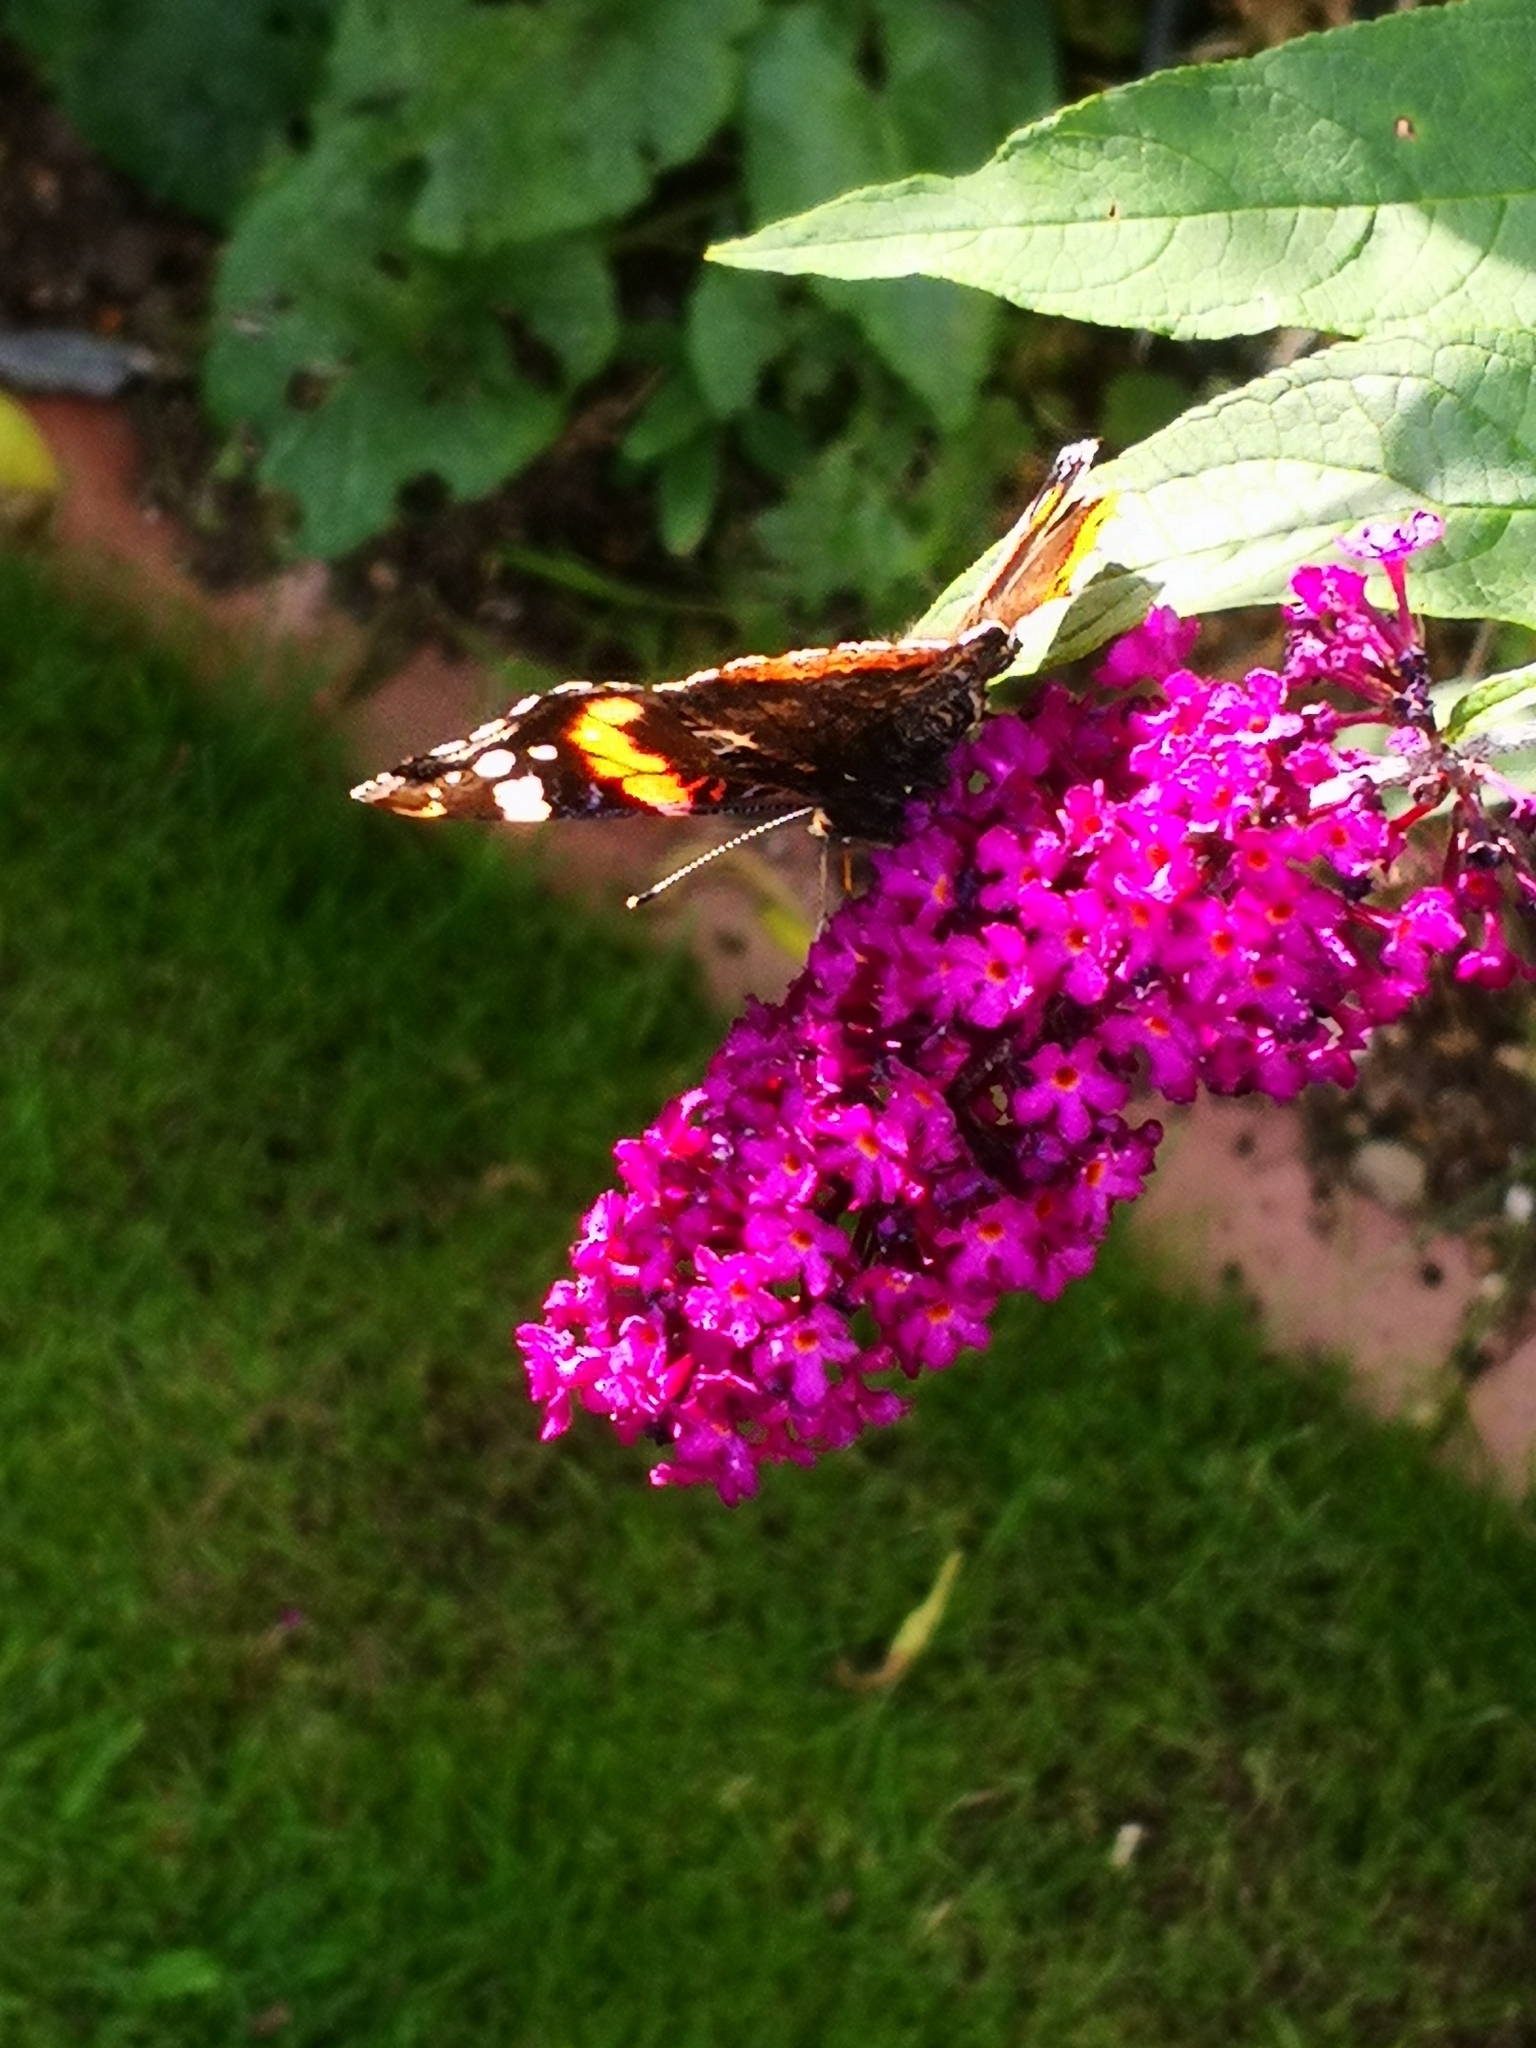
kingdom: Animalia
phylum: Arthropoda
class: Insecta
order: Lepidoptera
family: Nymphalidae
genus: Vanessa
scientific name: Vanessa atalanta
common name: Red admiral
